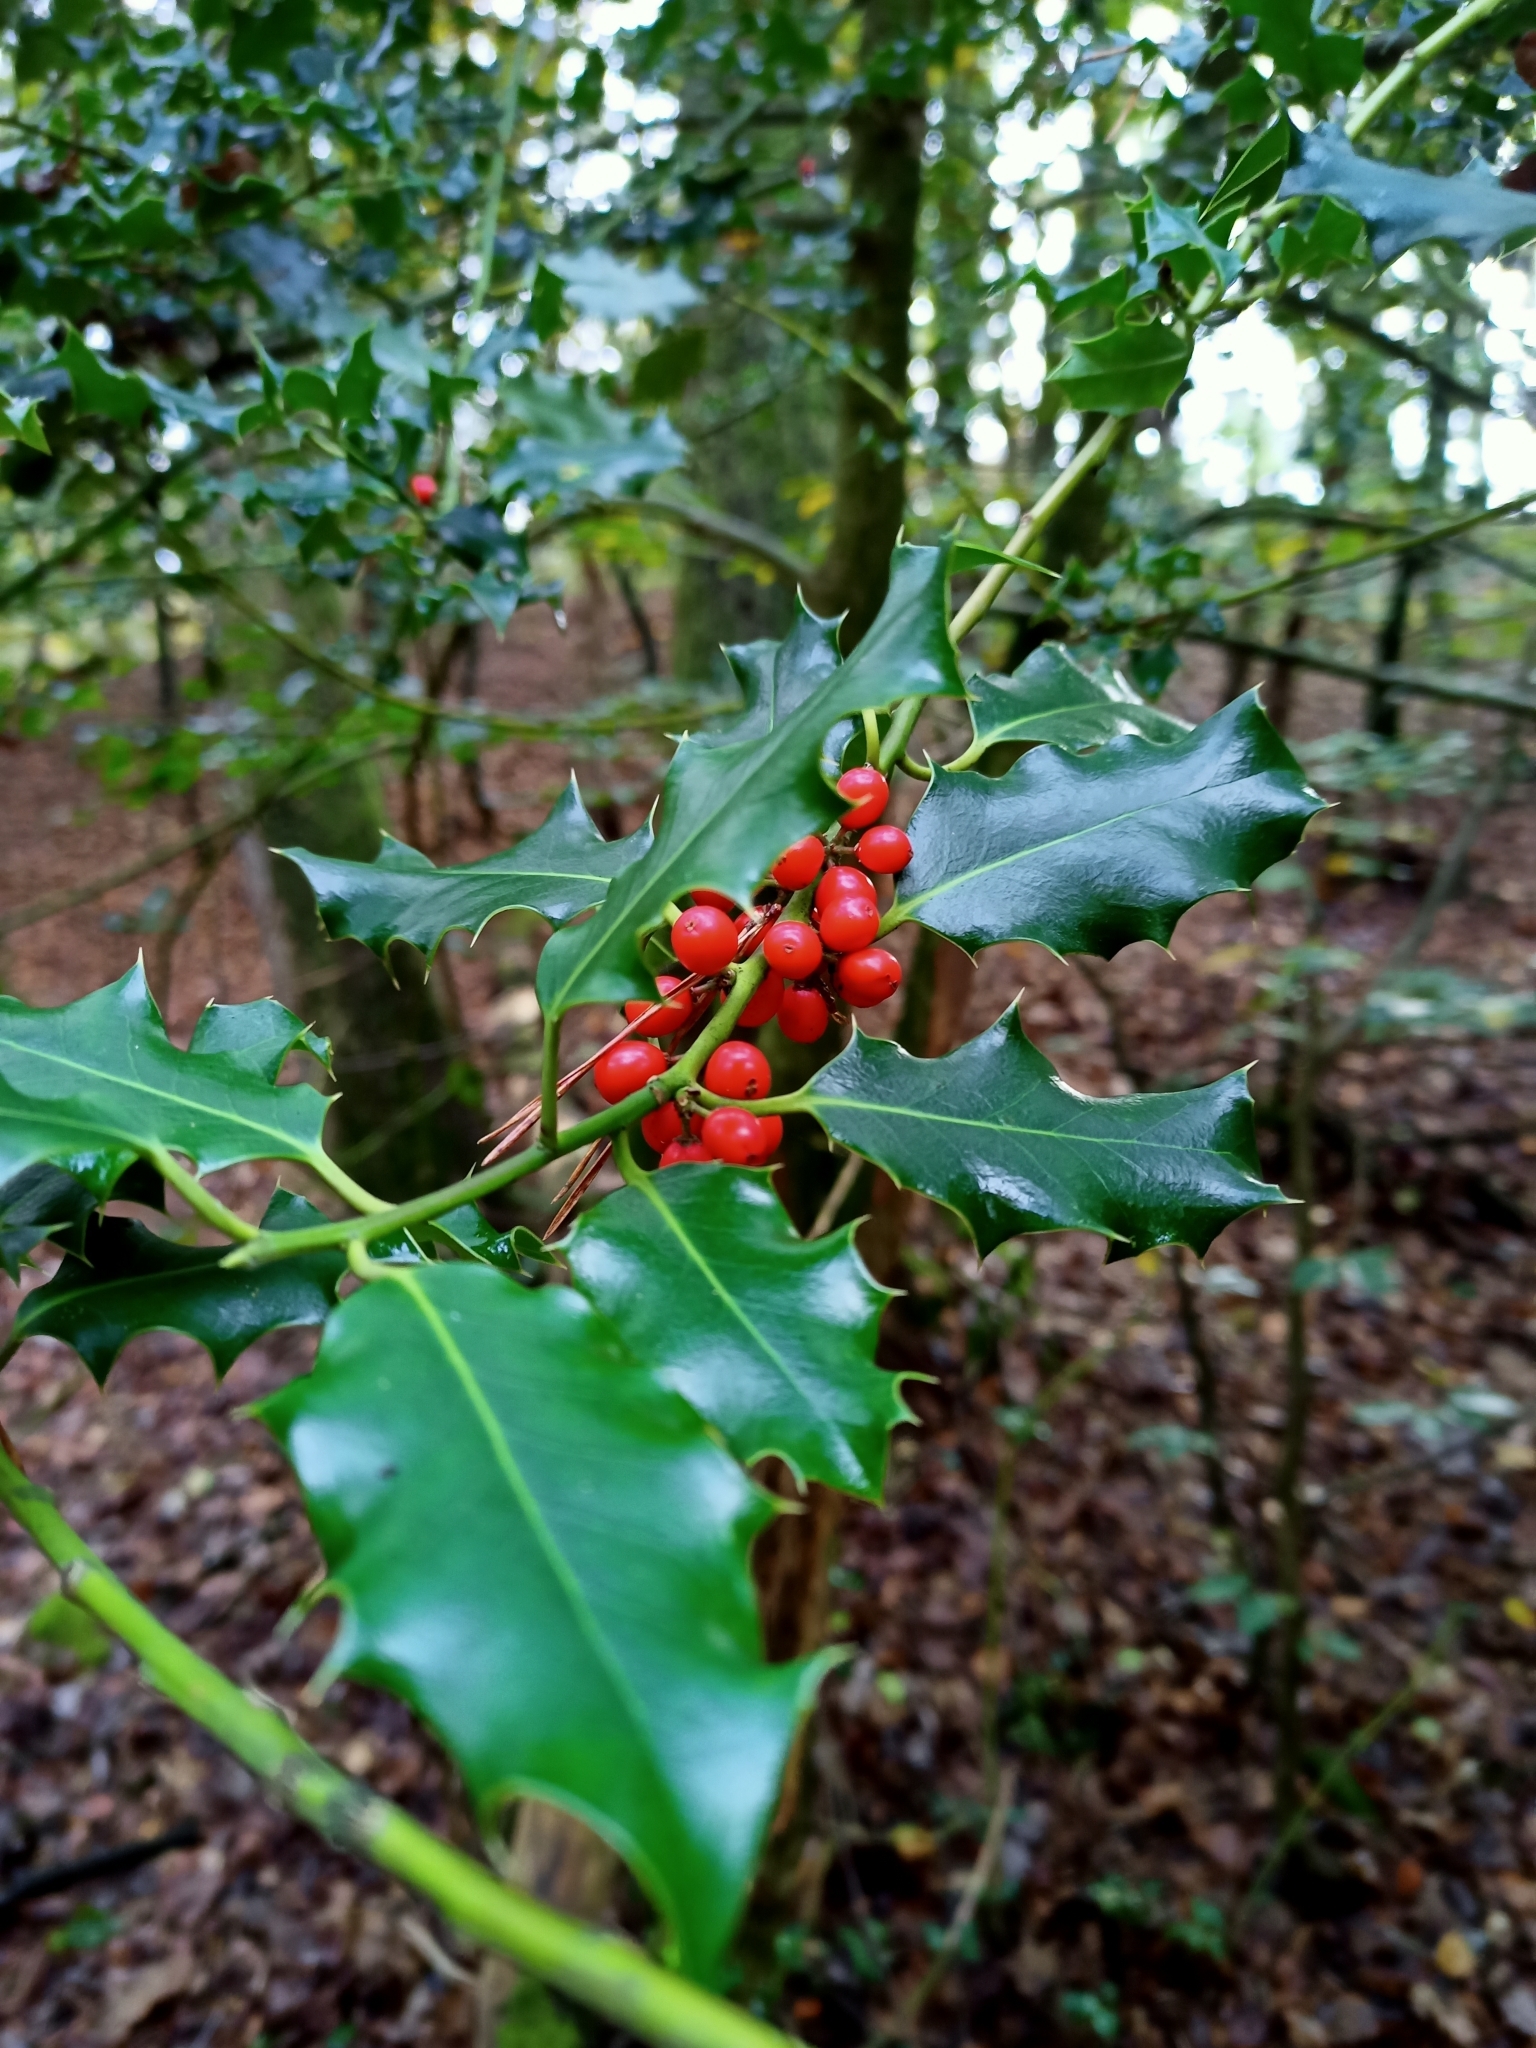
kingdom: Plantae
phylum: Tracheophyta
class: Magnoliopsida
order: Aquifoliales
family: Aquifoliaceae
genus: Ilex
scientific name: Ilex aquifolium
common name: English holly
